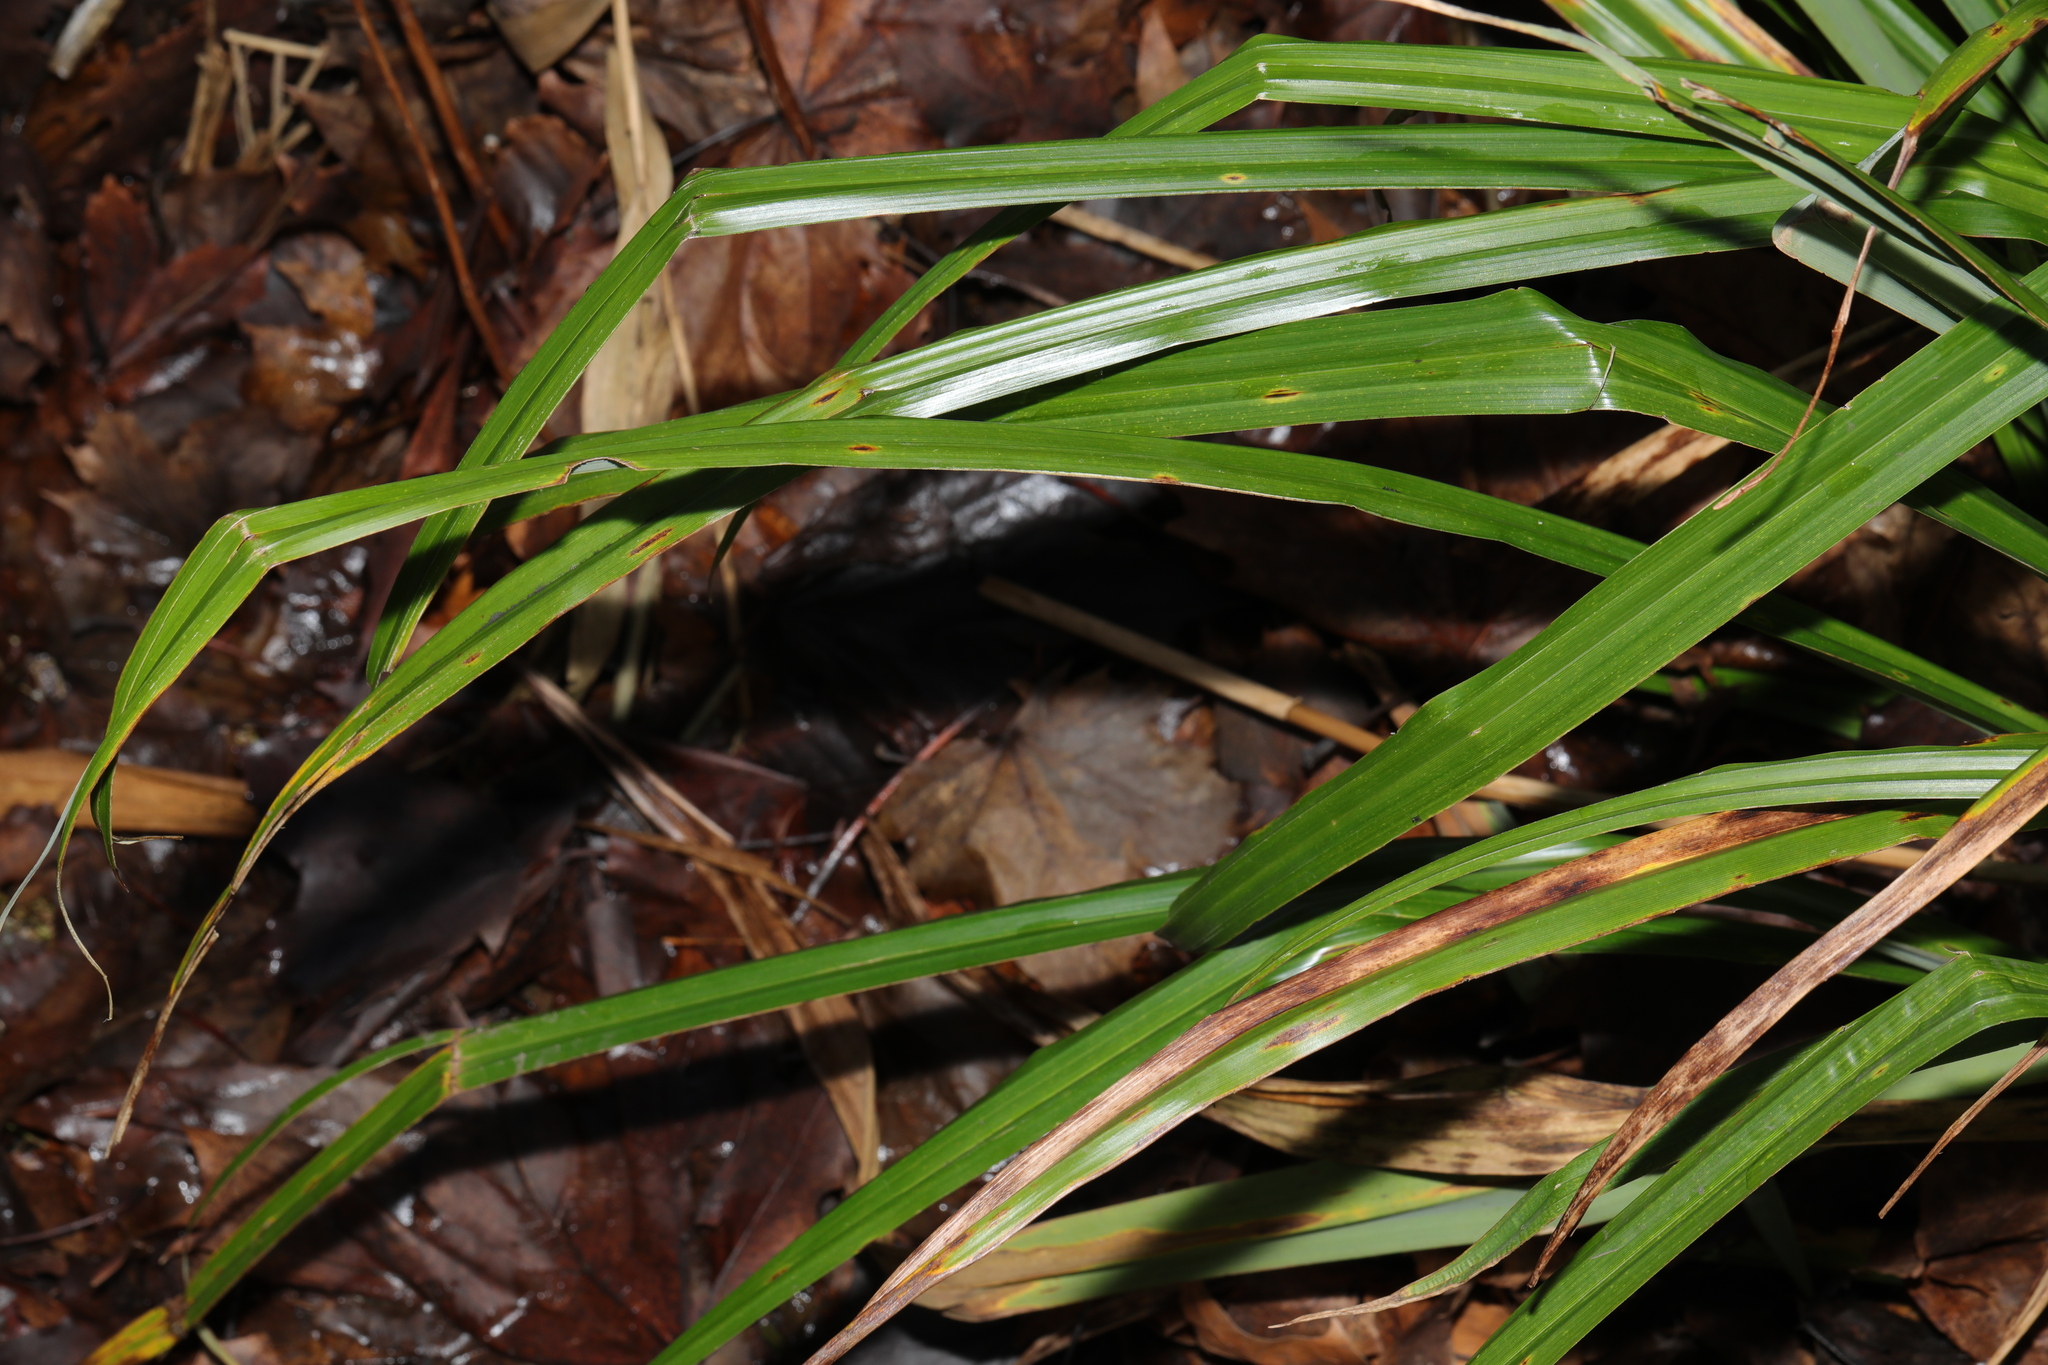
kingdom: Plantae
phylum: Tracheophyta
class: Liliopsida
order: Poales
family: Cyperaceae
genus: Carex
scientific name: Carex pendula
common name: Pendulous sedge
